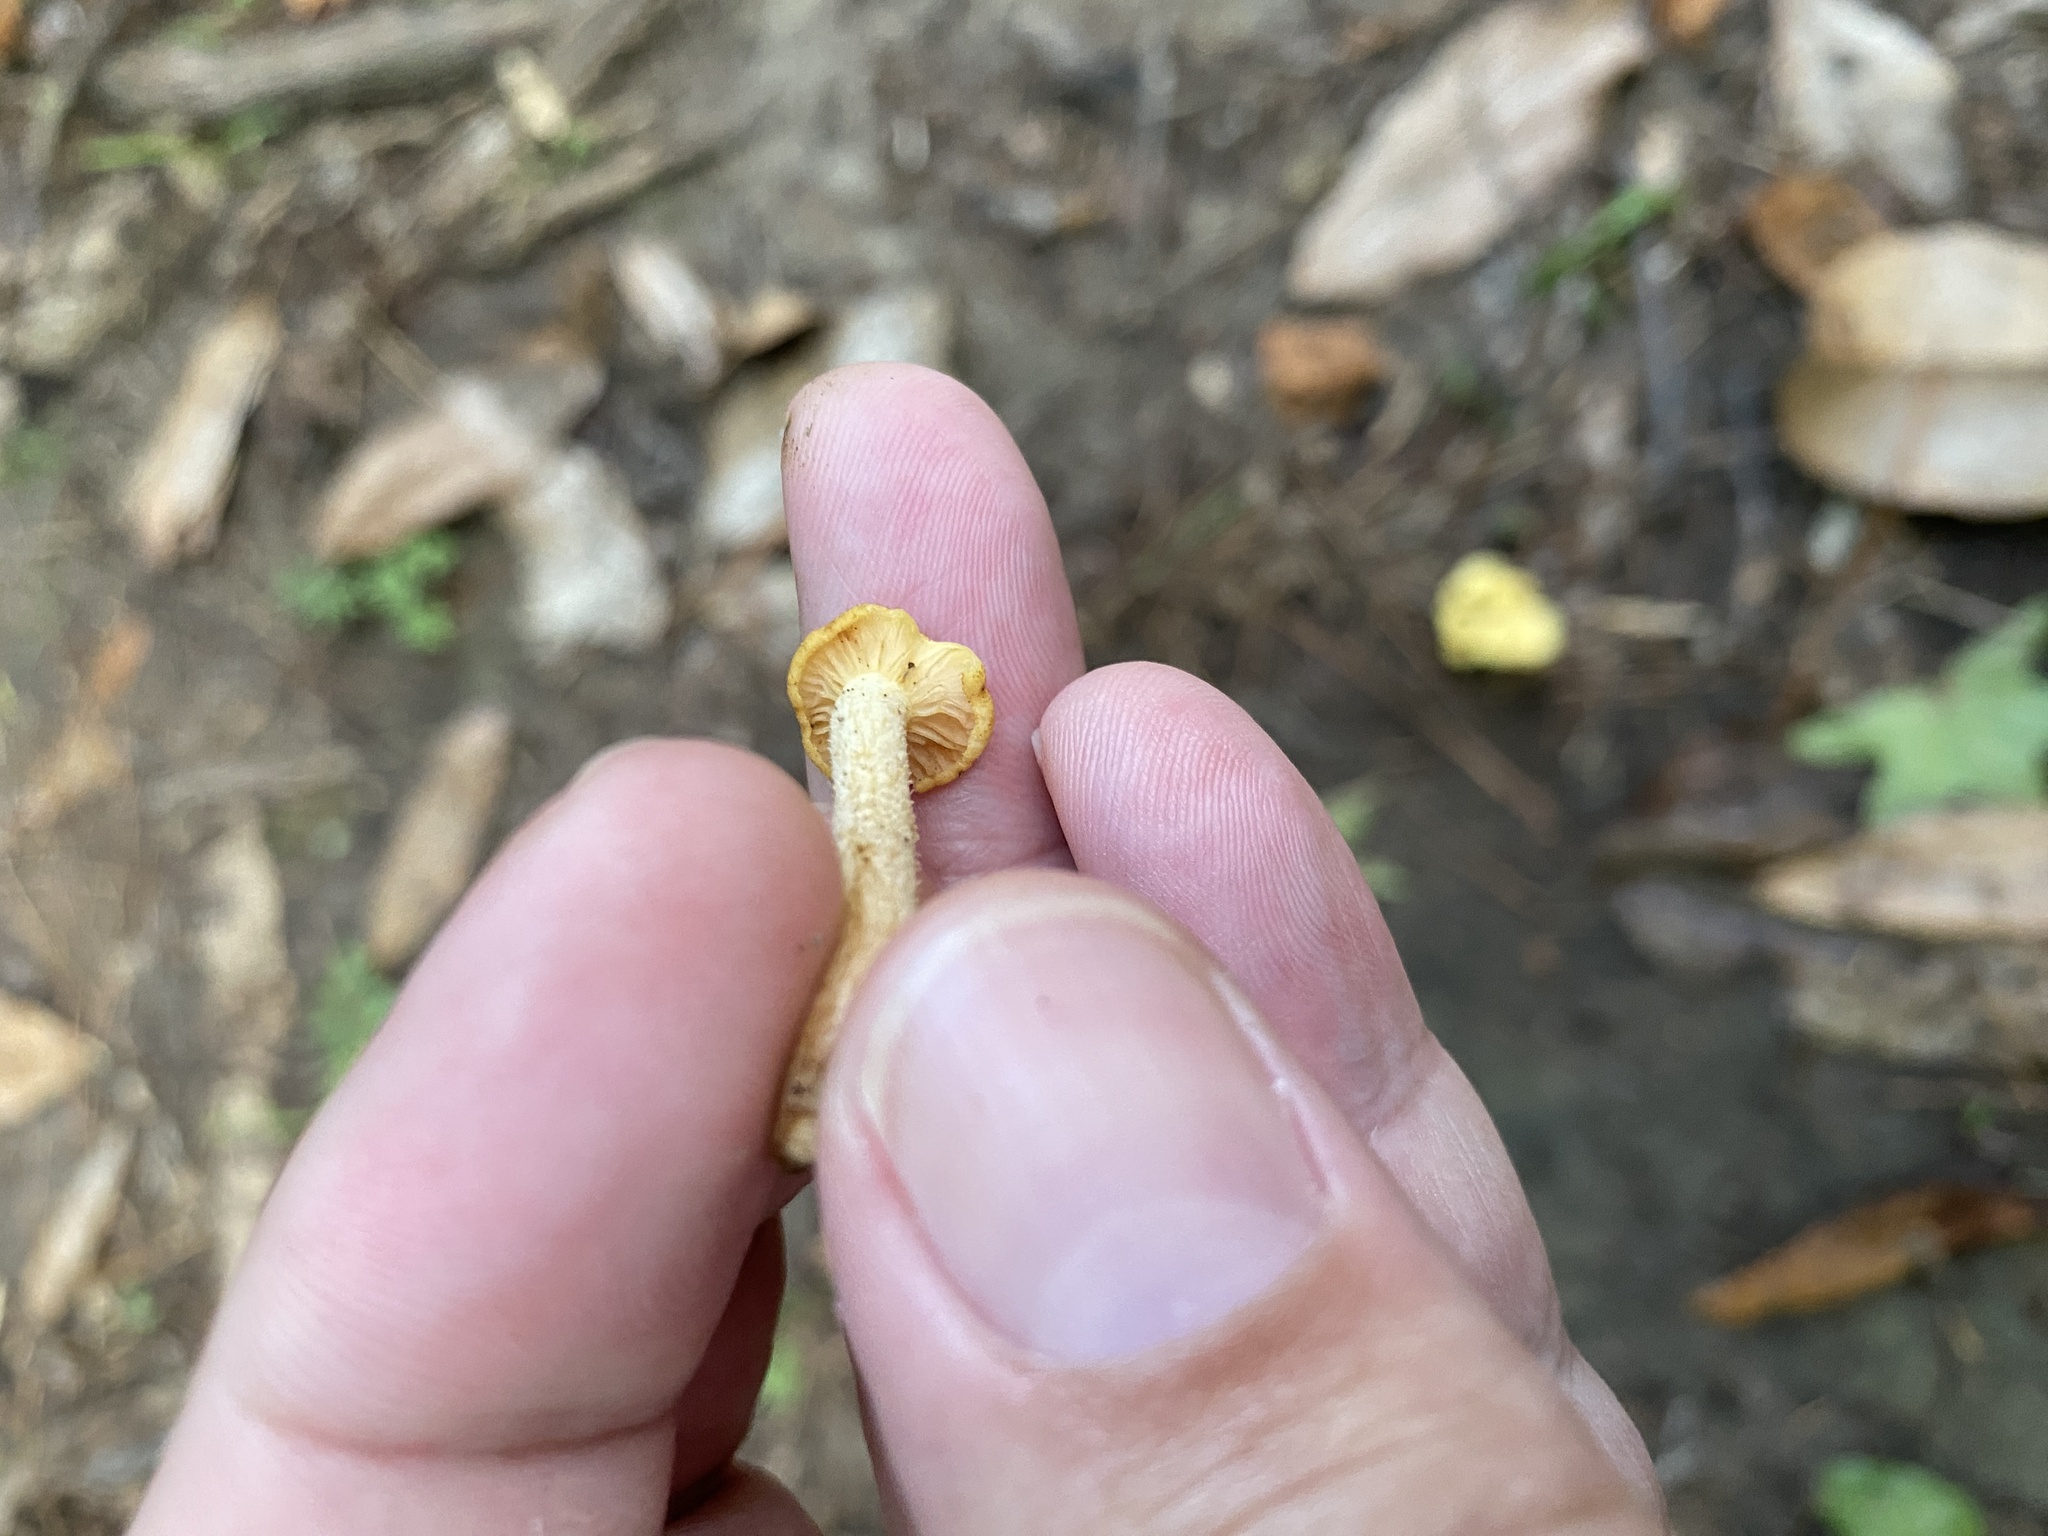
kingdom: Fungi
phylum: Basidiomycota
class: Agaricomycetes
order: Agaricales
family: Physalacriaceae
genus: Desarmillaria
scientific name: Desarmillaria caespitosa
